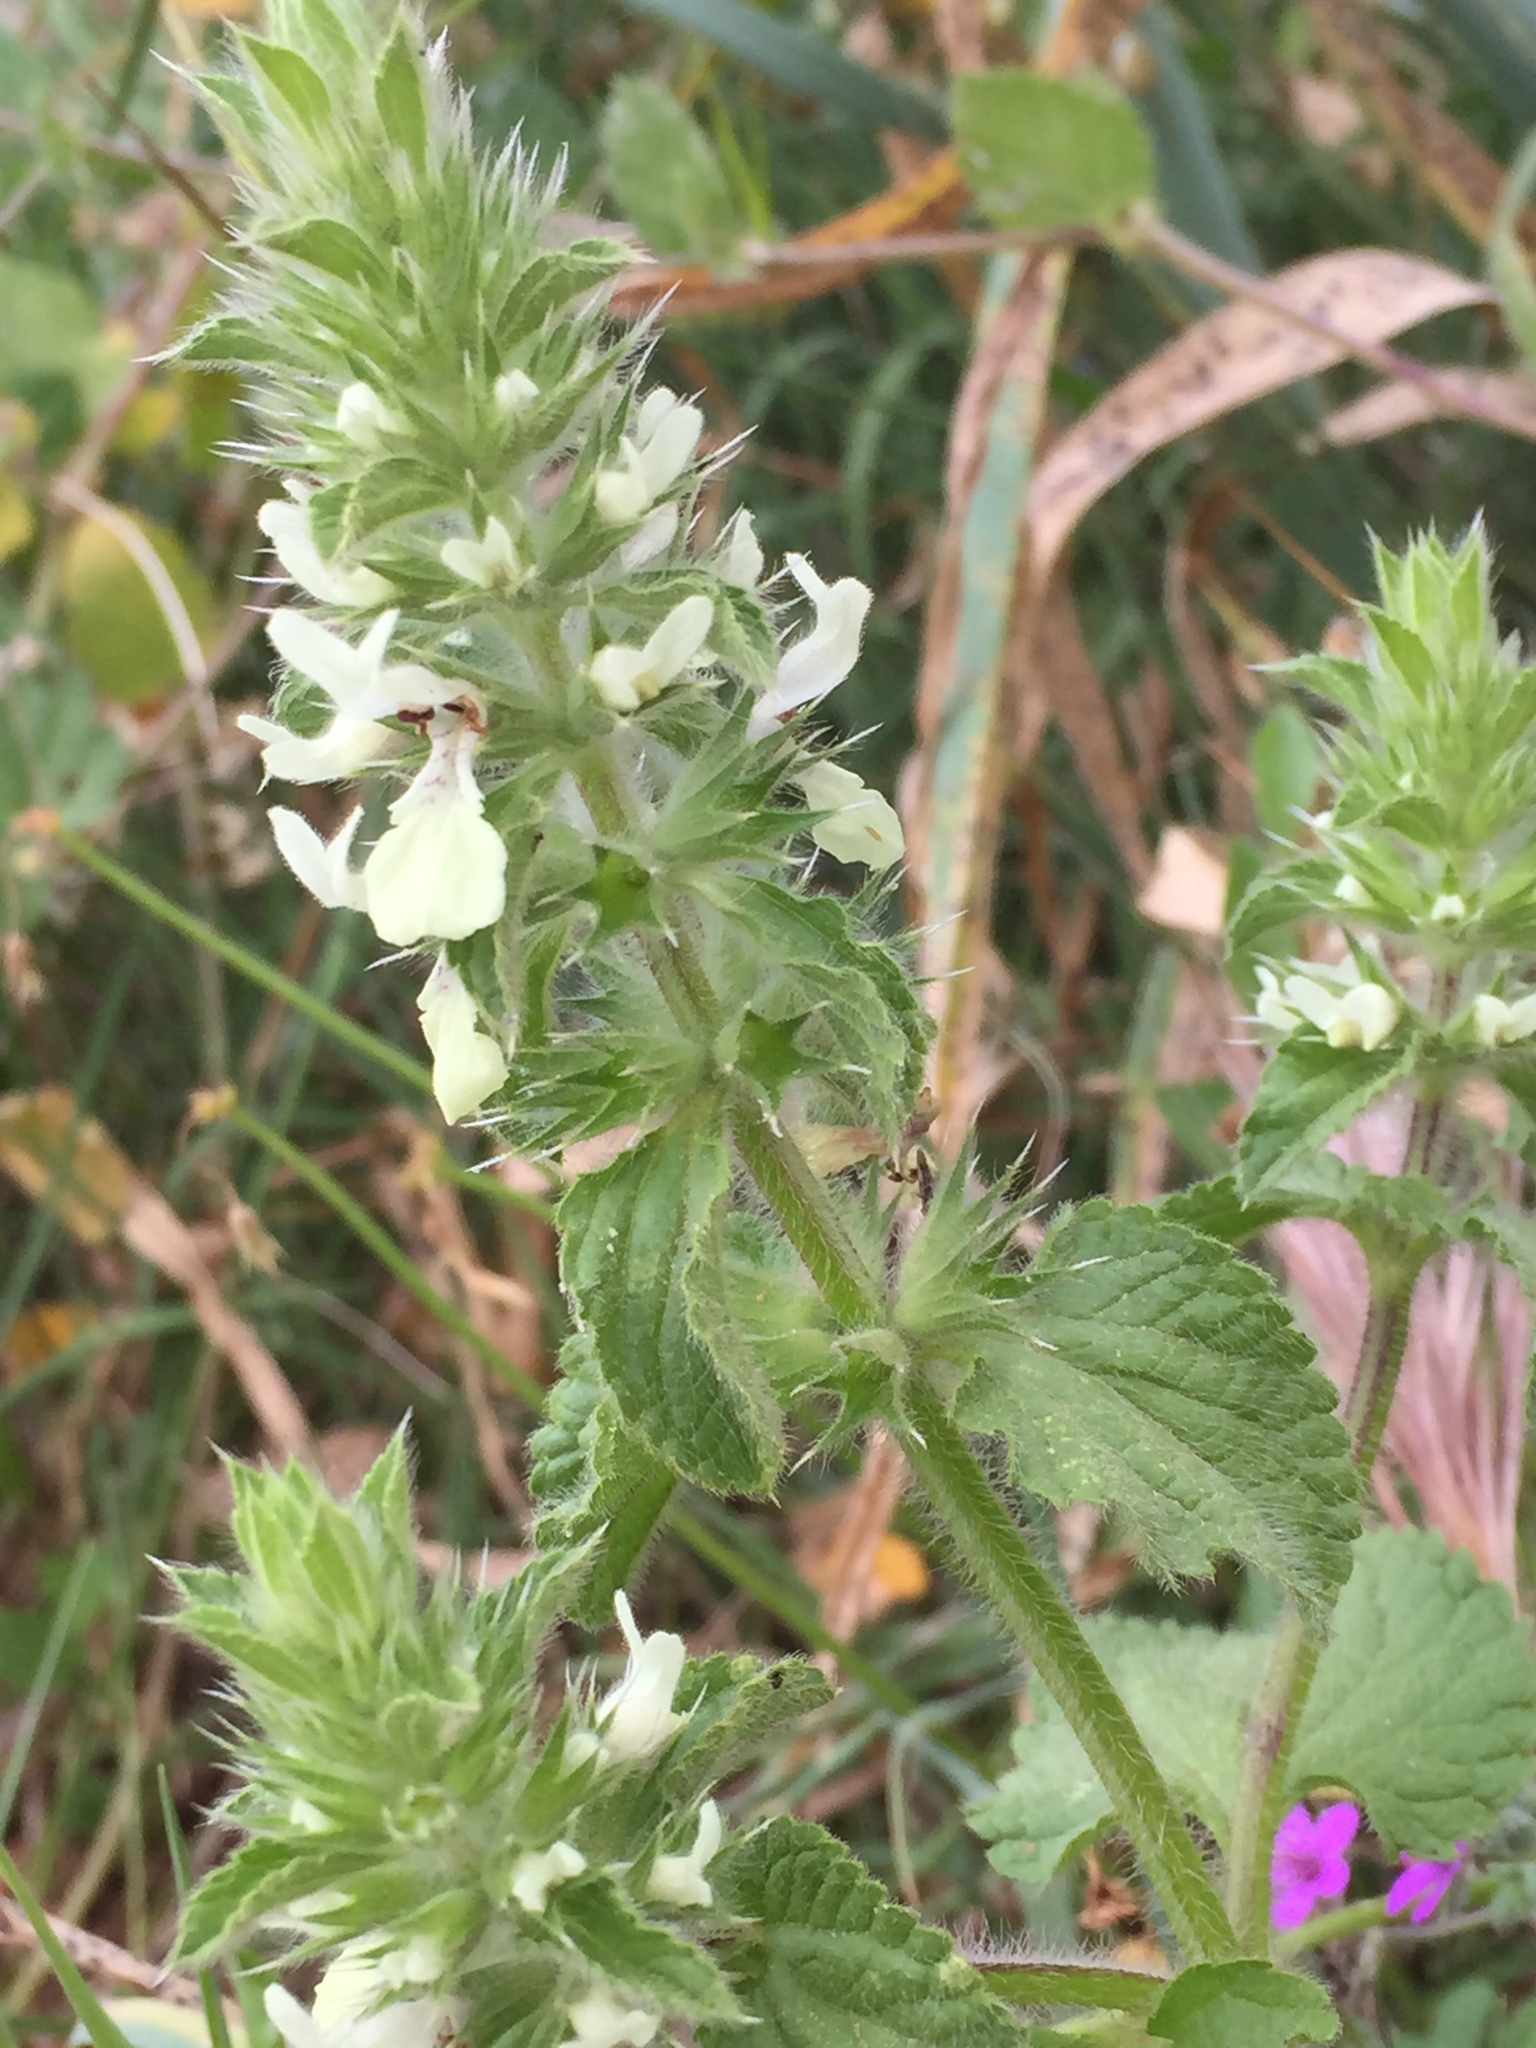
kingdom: Plantae
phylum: Tracheophyta
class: Magnoliopsida
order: Lamiales
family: Lamiaceae
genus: Stachys
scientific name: Stachys ocymastrum
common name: Italian hedgenettle
